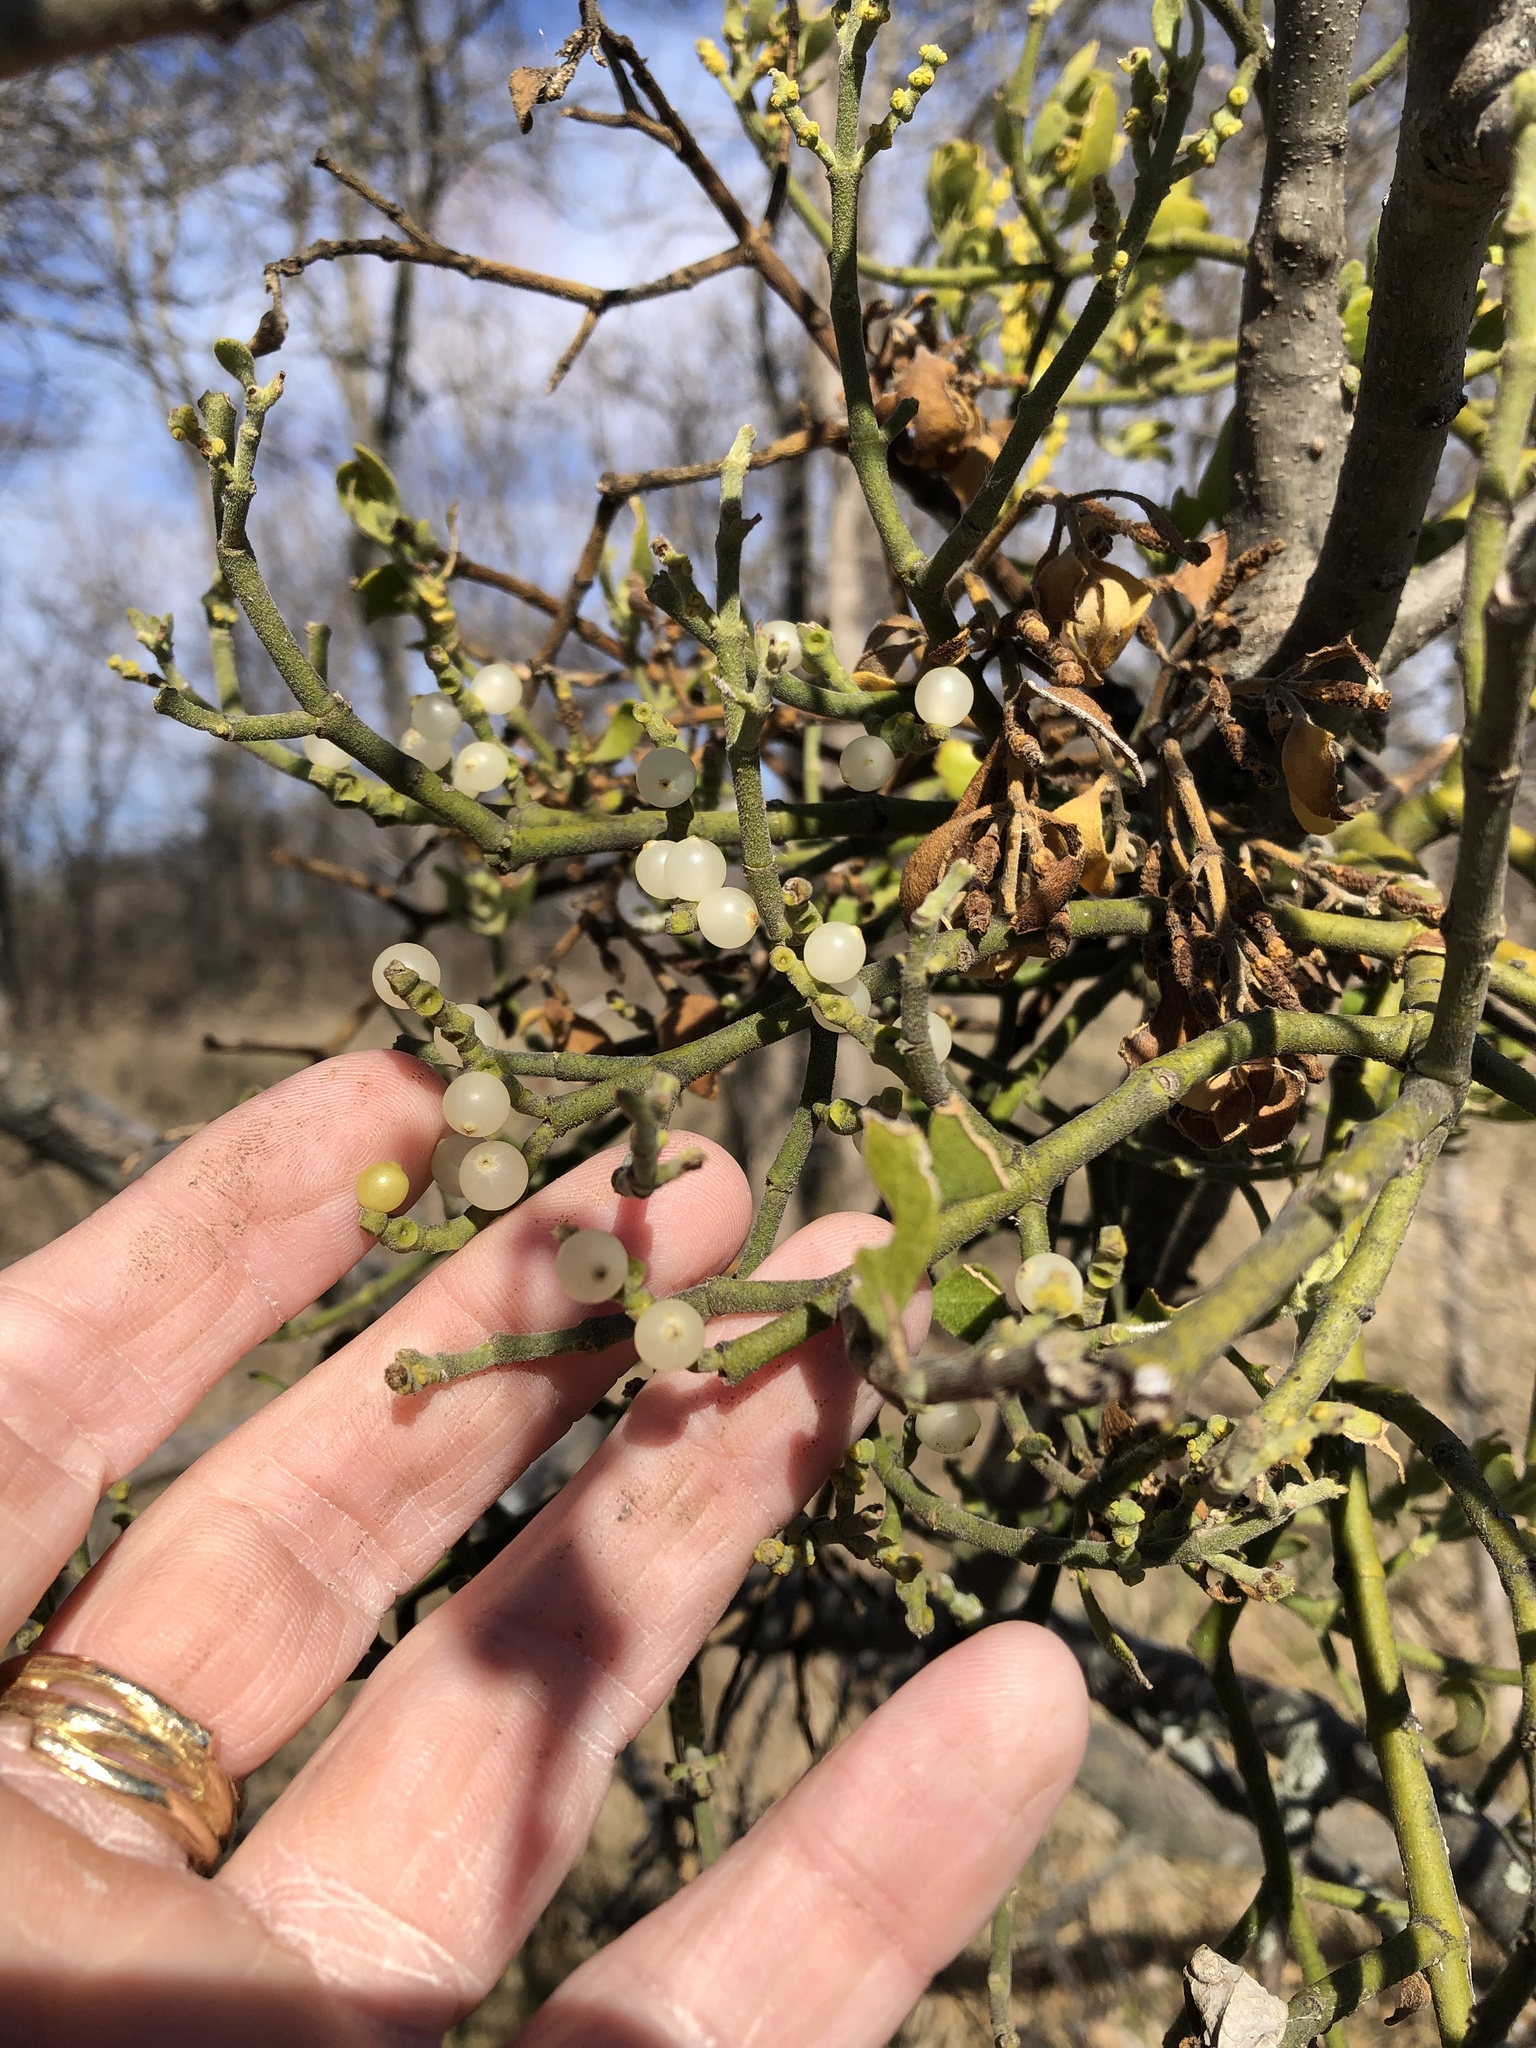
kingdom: Plantae
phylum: Tracheophyta
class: Magnoliopsida
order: Santalales
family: Viscaceae
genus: Phoradendron
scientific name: Phoradendron leucarpum
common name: Pacific mistletoe
